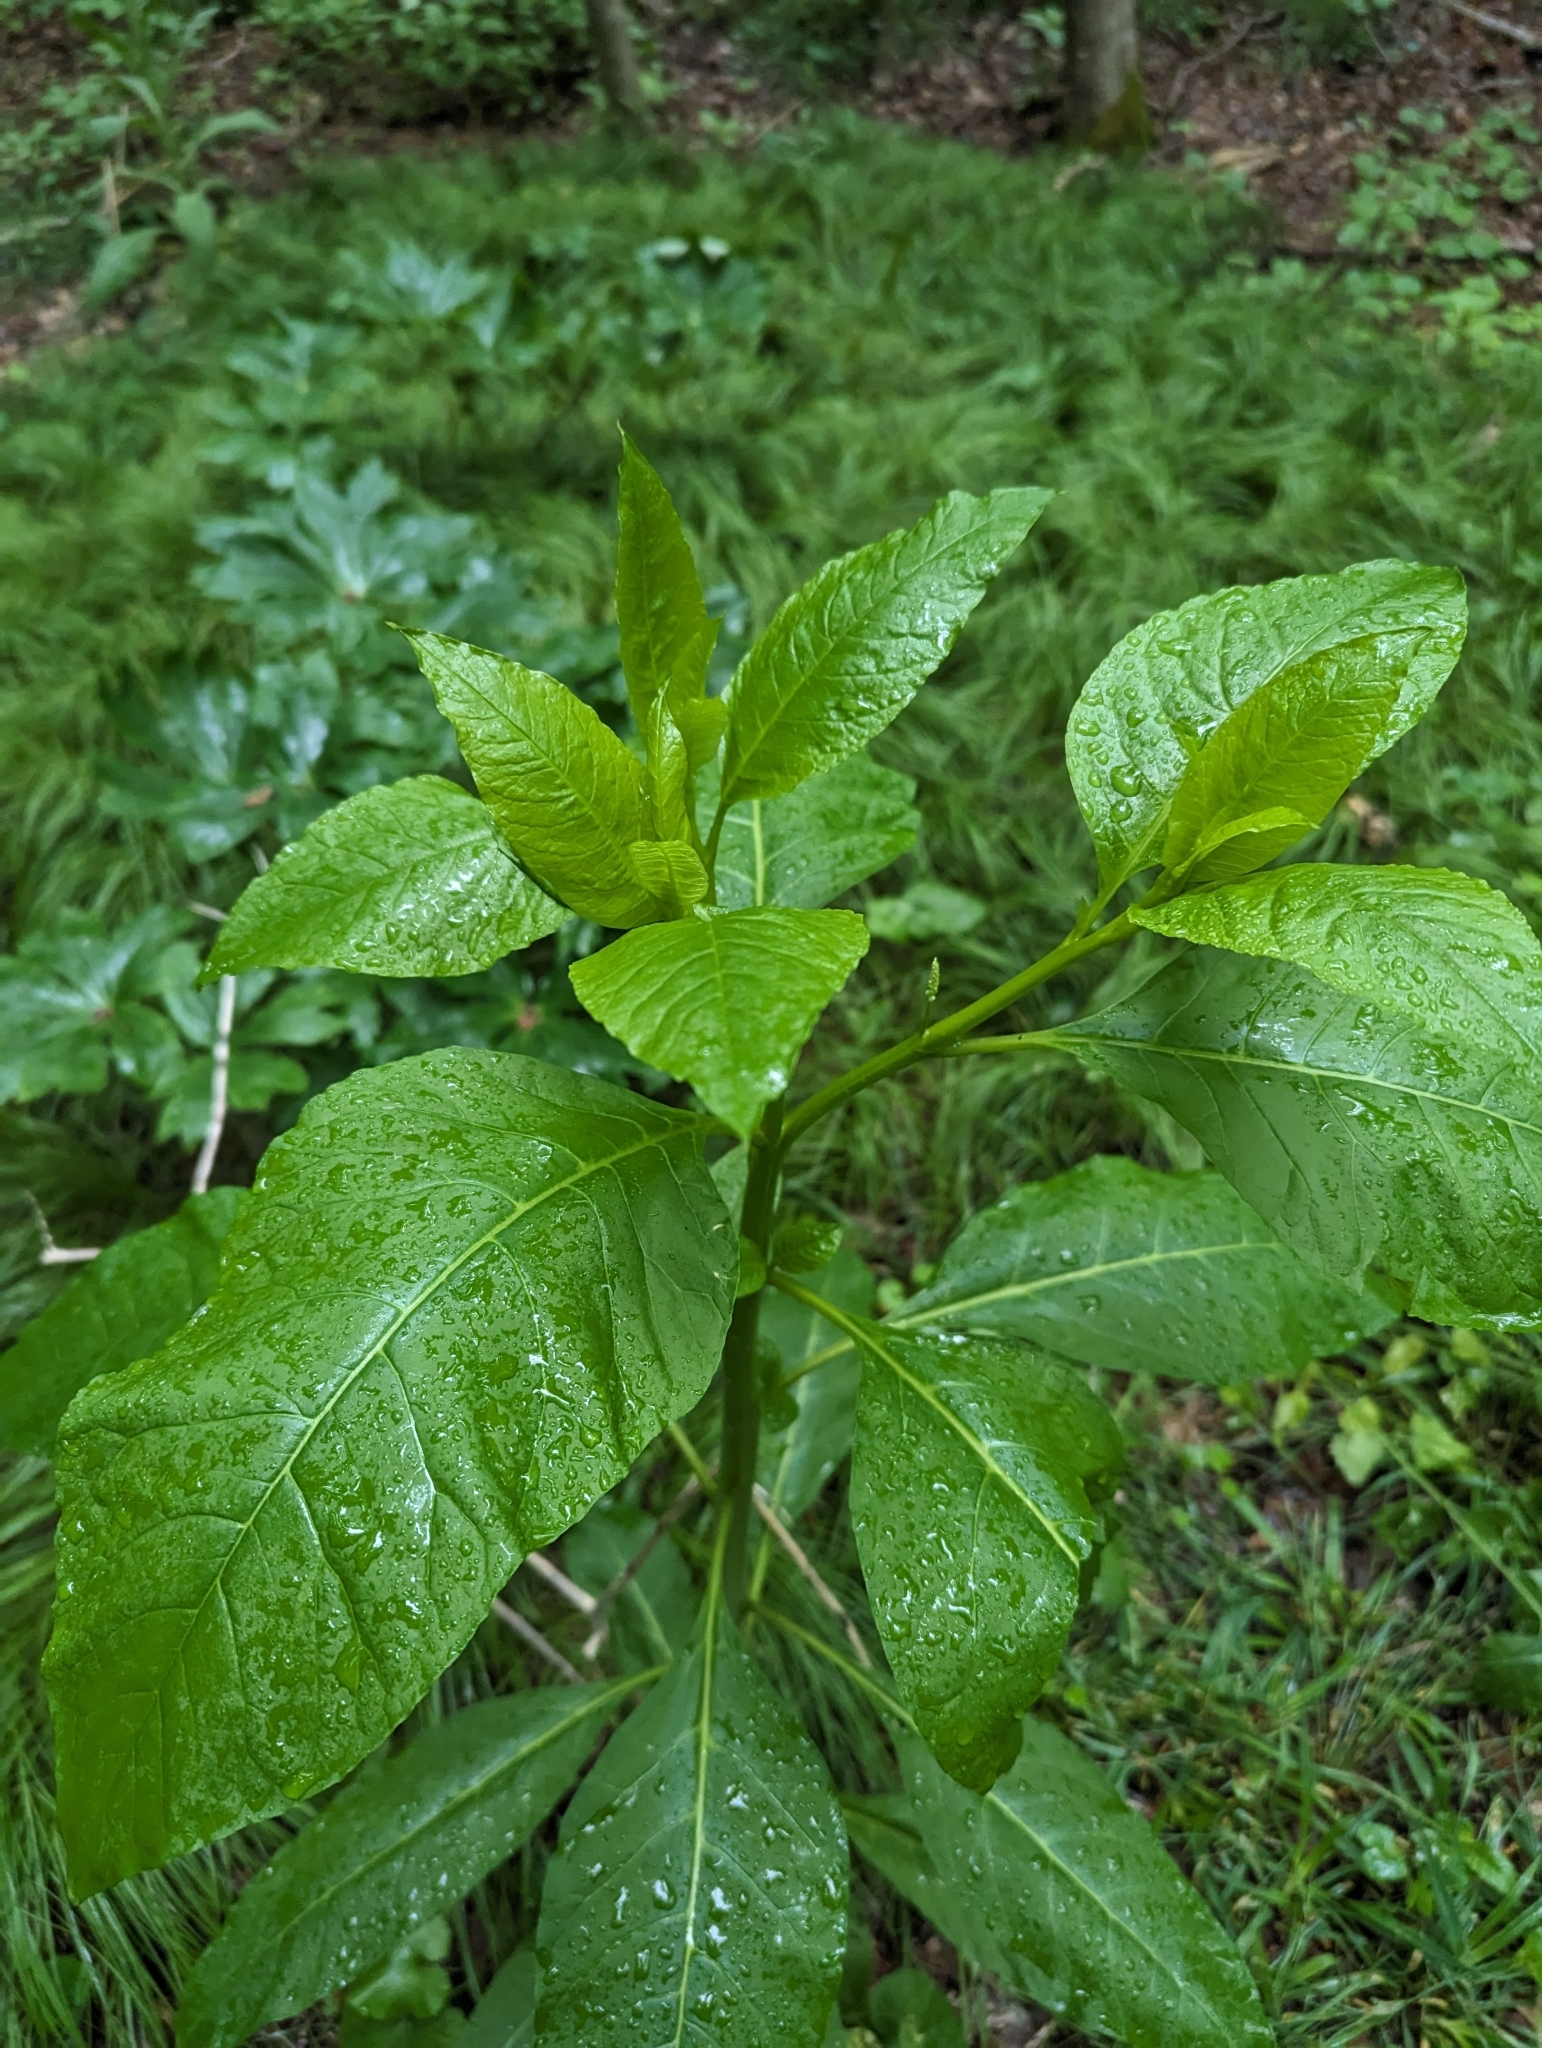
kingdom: Plantae
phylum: Tracheophyta
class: Magnoliopsida
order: Caryophyllales
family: Phytolaccaceae
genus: Phytolacca
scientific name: Phytolacca americana
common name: American pokeweed
